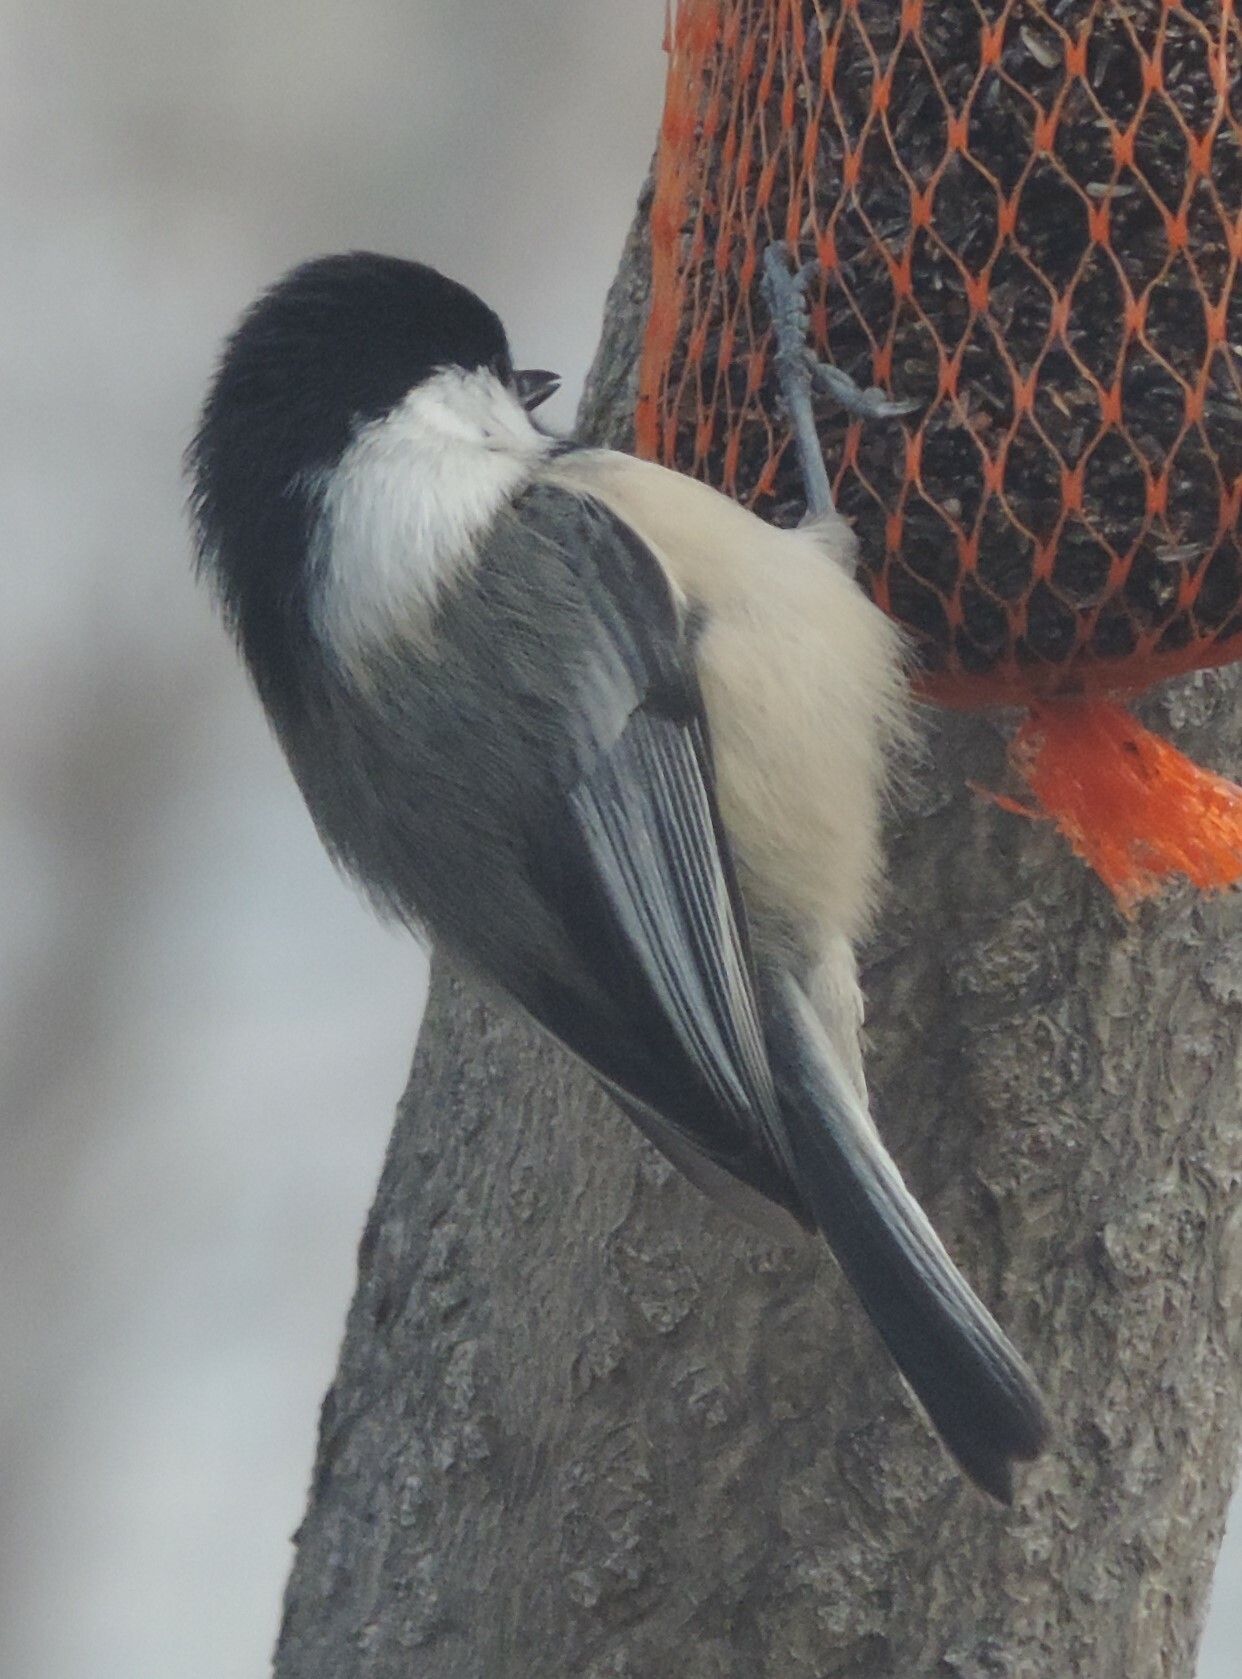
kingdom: Animalia
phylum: Chordata
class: Aves
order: Passeriformes
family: Paridae
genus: Poecile
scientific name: Poecile atricapillus
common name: Black-capped chickadee
